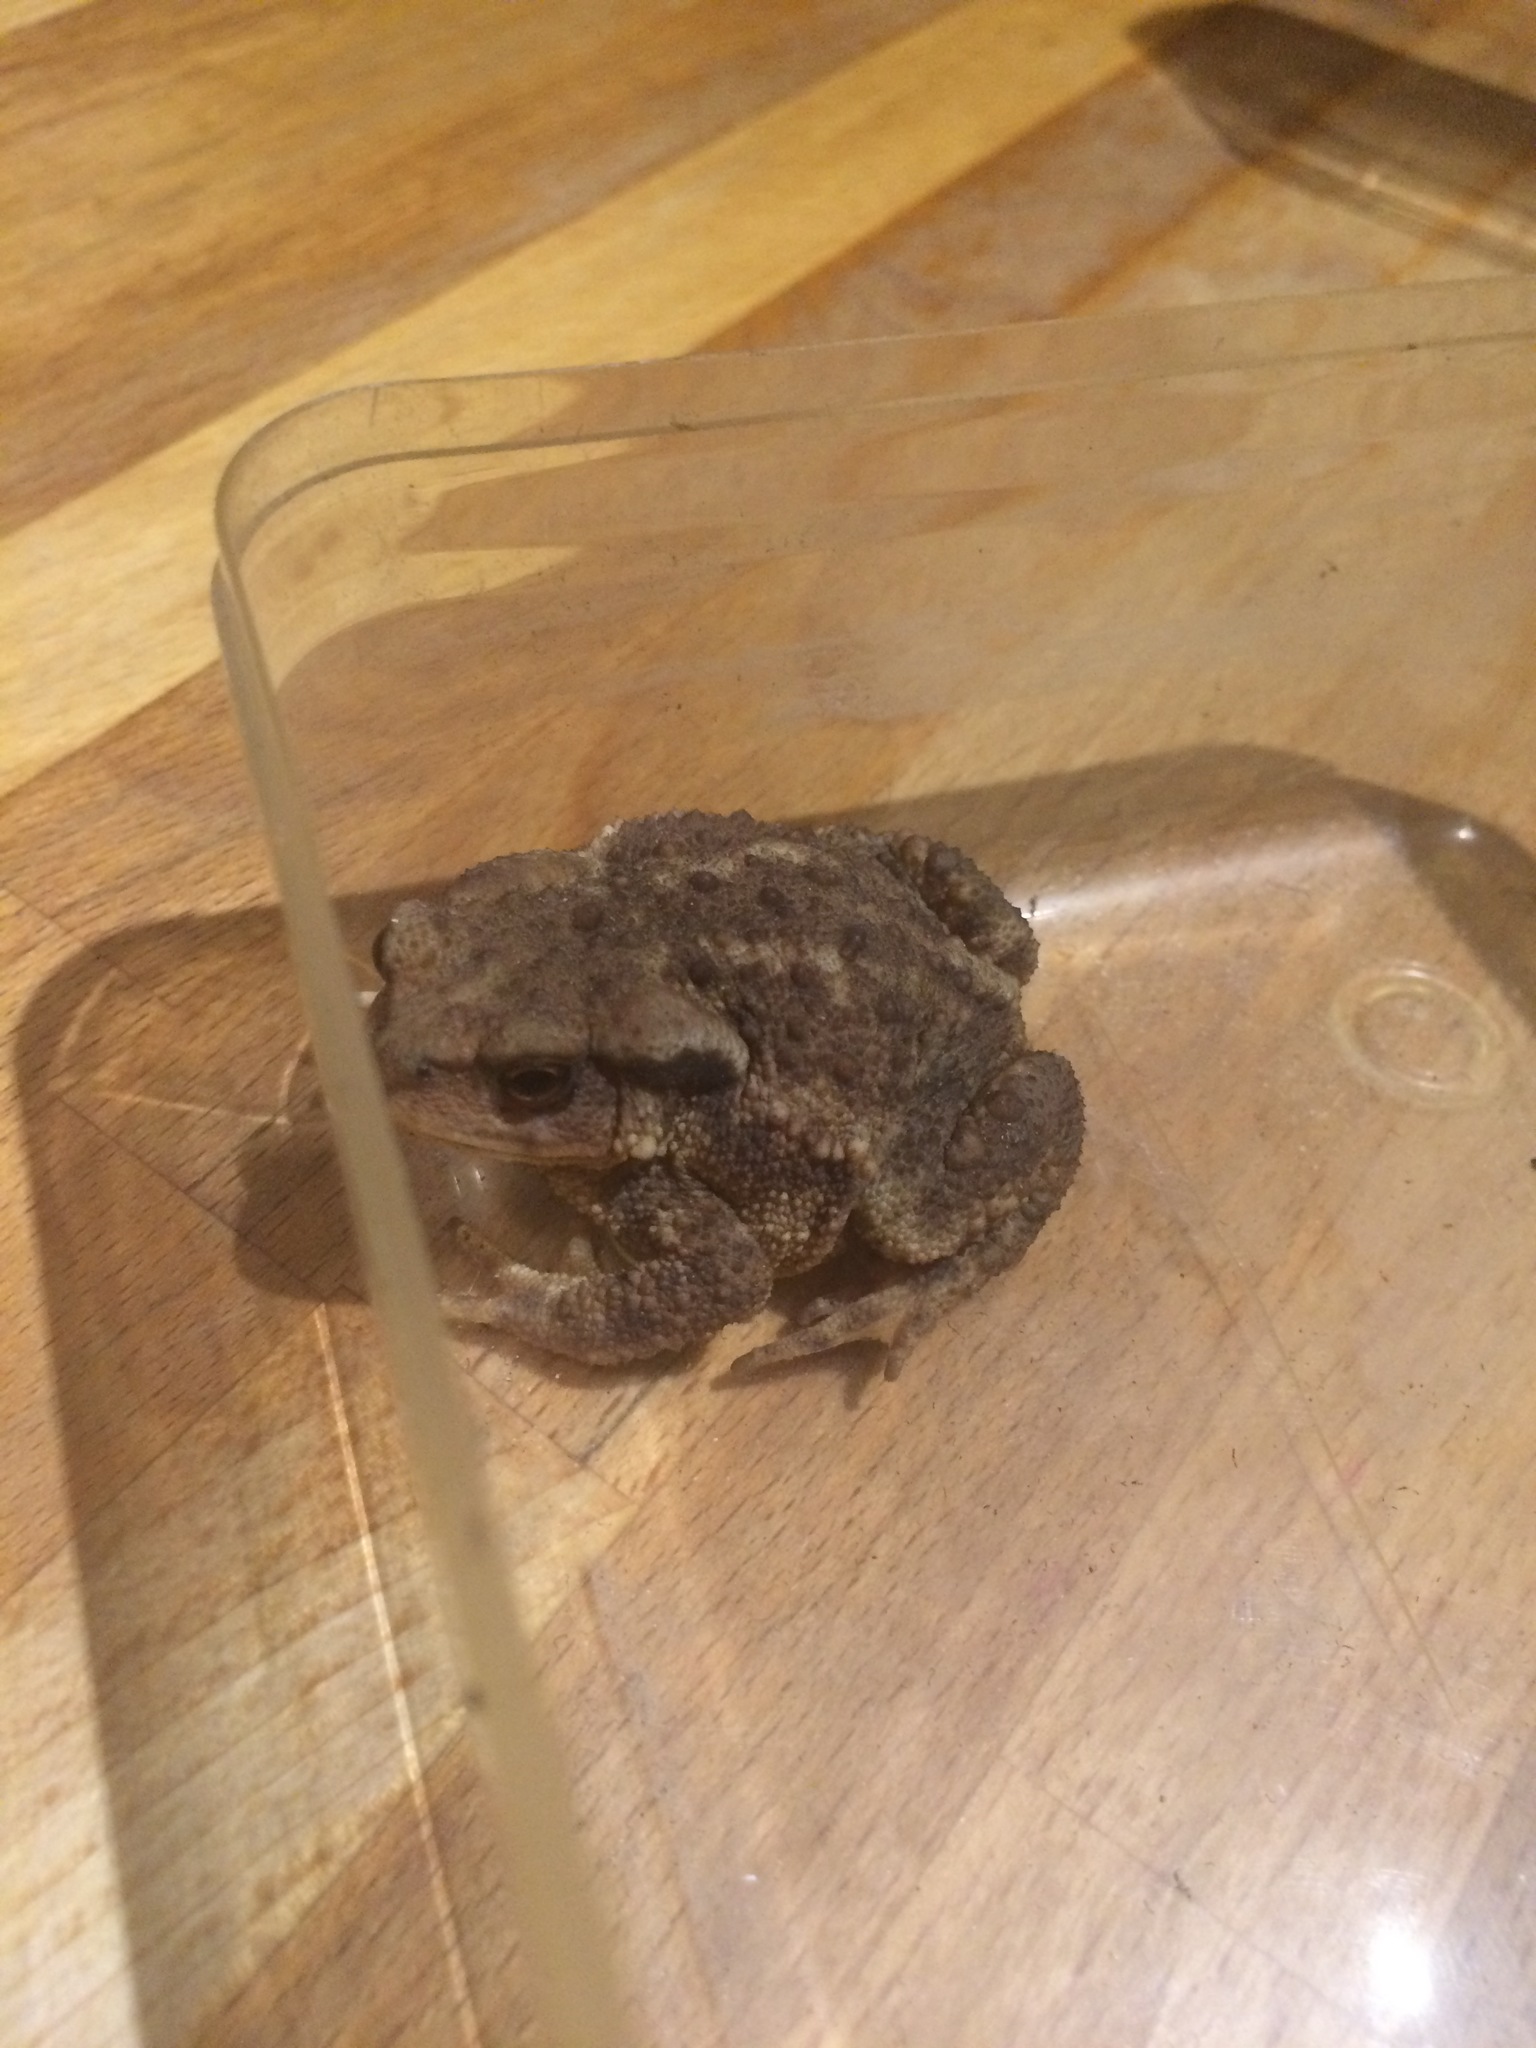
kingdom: Animalia
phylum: Chordata
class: Amphibia
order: Anura
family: Bufonidae
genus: Bufo
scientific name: Bufo spinosus
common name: Western common toad
